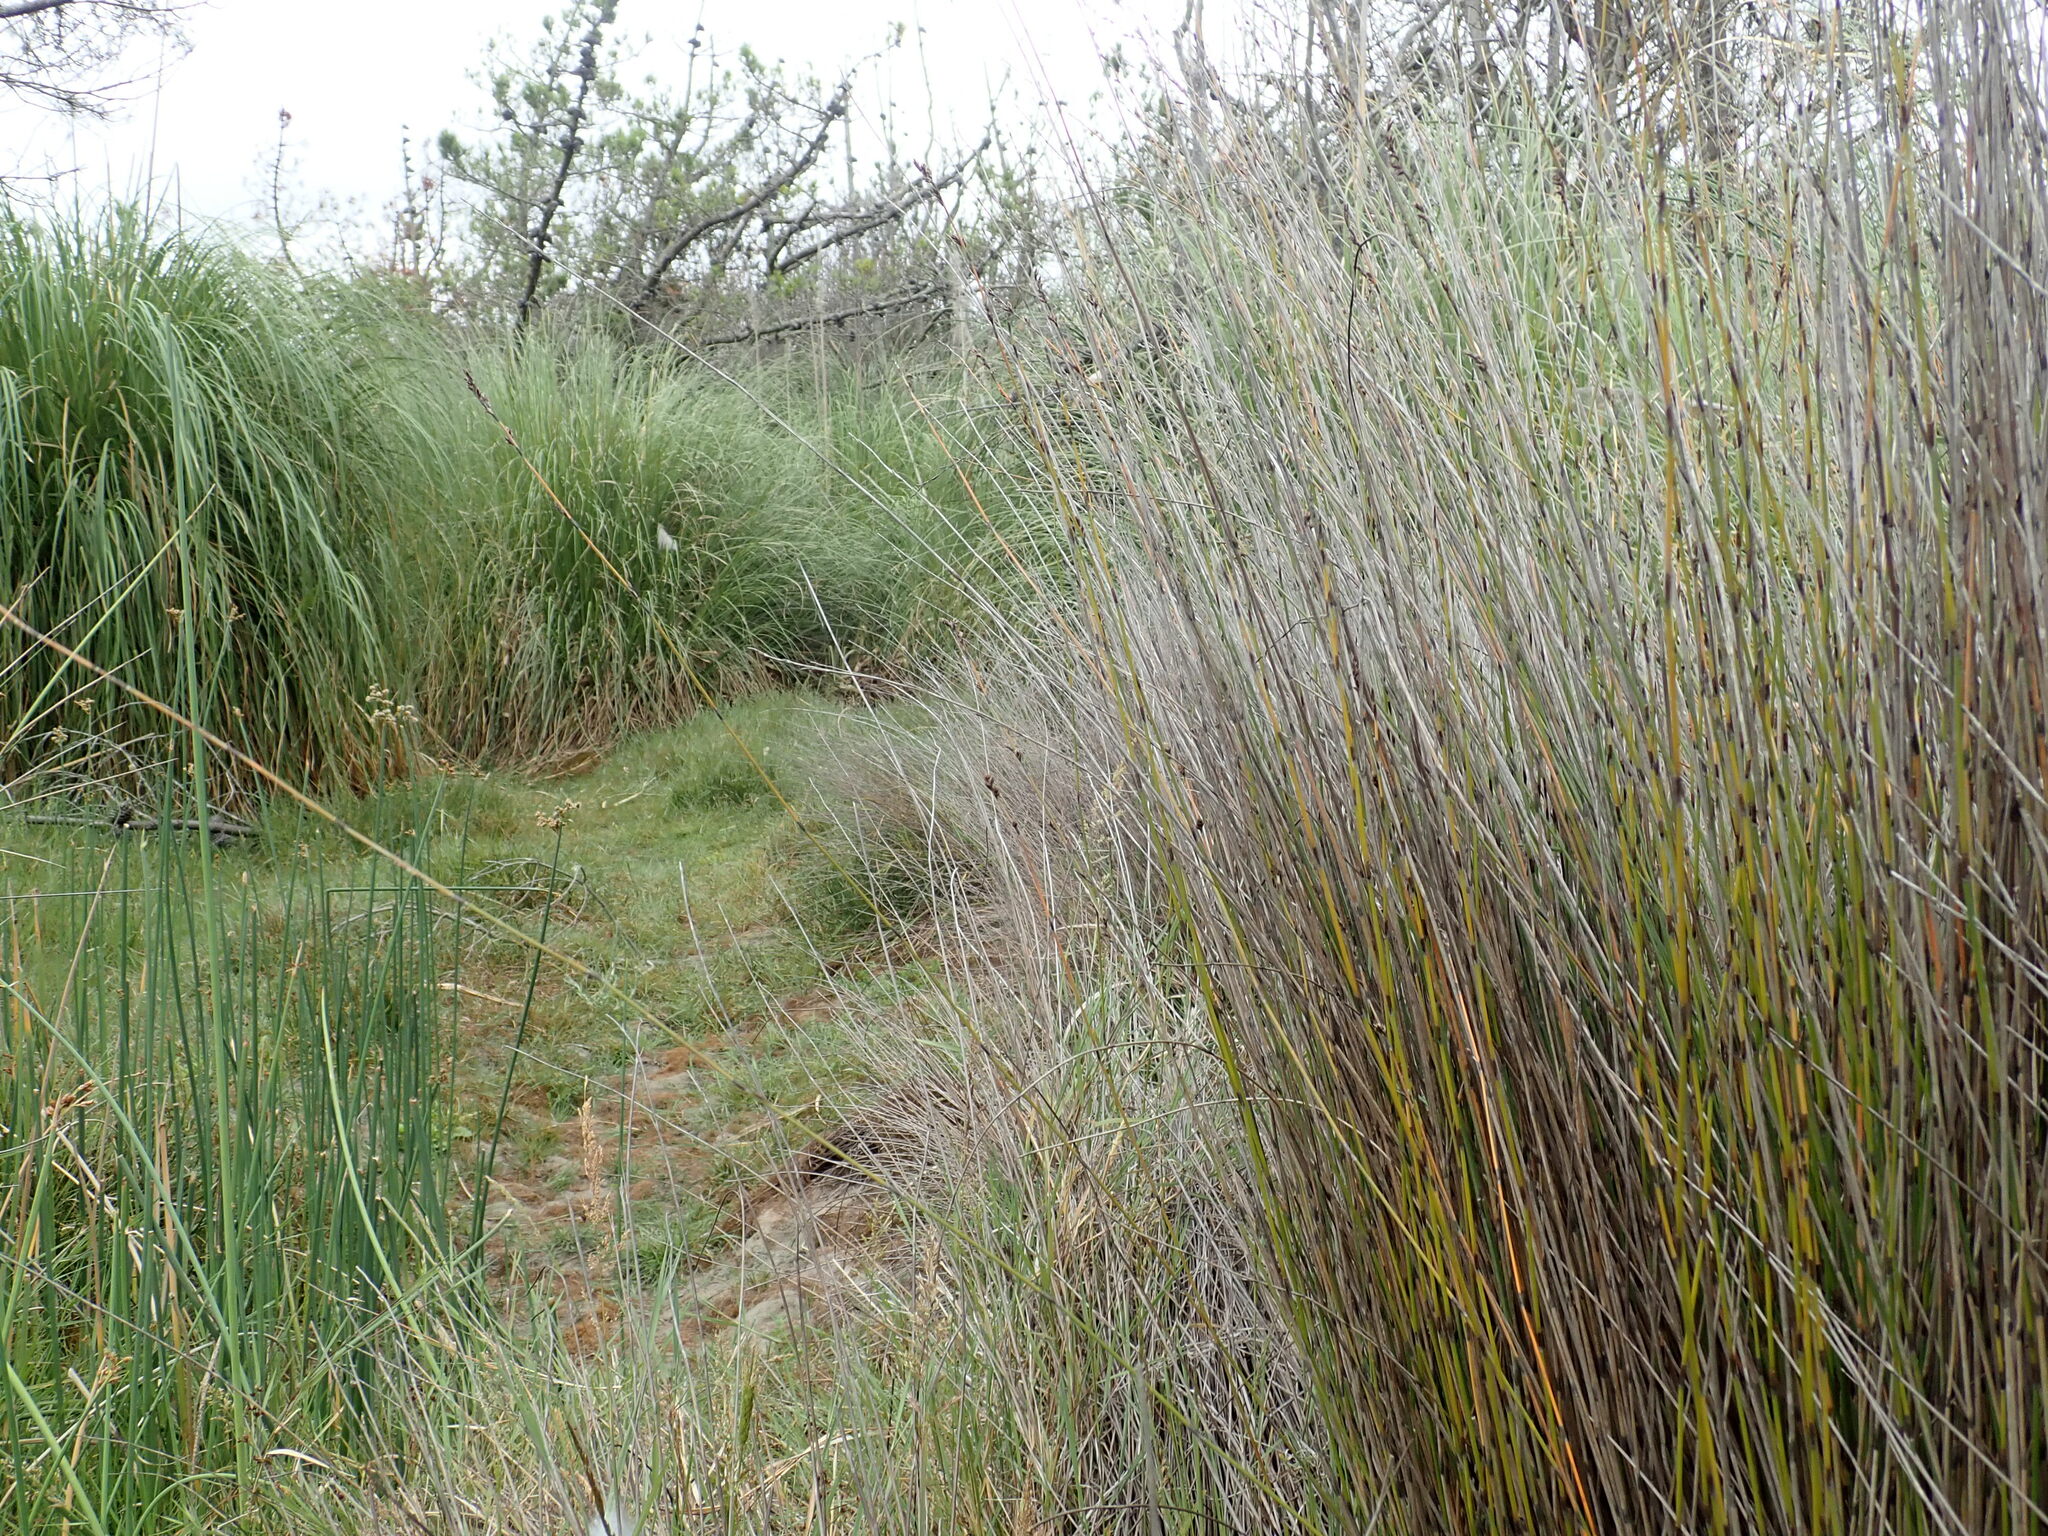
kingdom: Plantae
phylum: Tracheophyta
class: Liliopsida
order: Poales
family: Restionaceae
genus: Apodasmia
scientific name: Apodasmia similis
